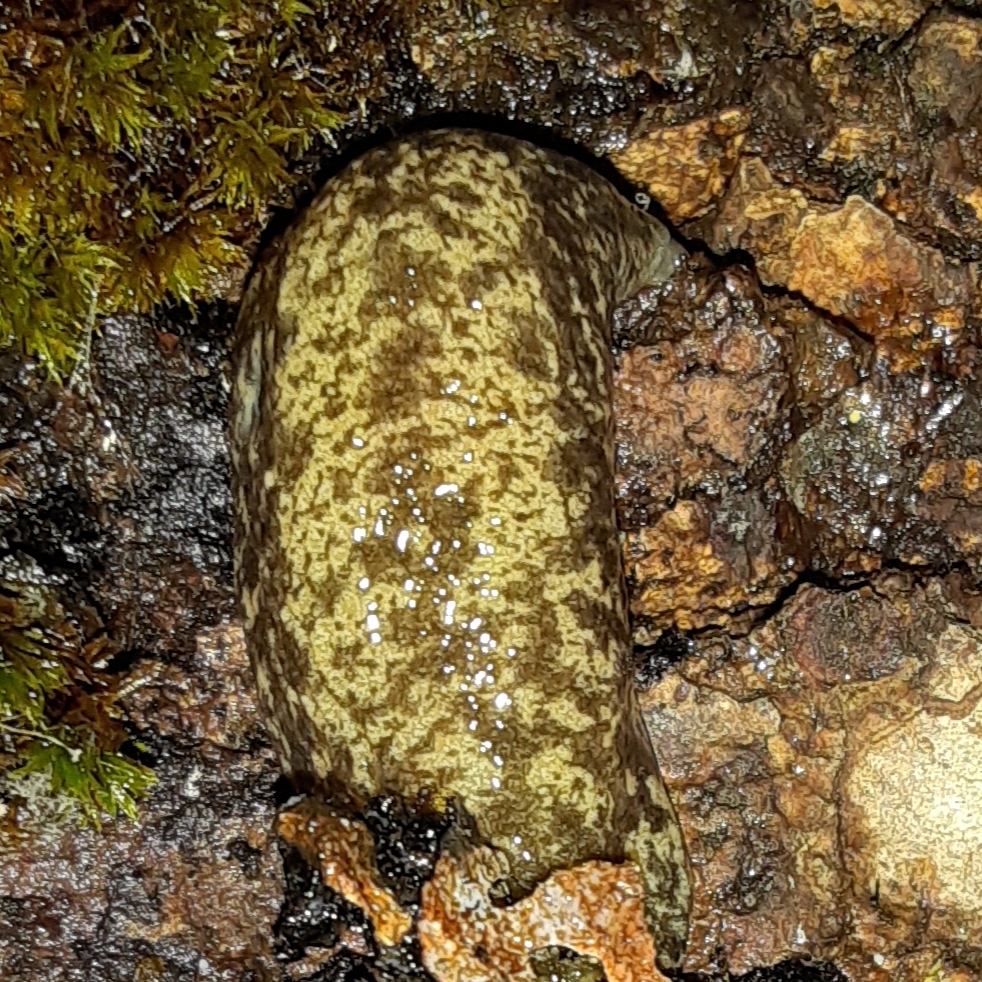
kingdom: Animalia
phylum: Mollusca
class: Gastropoda
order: Stylommatophora
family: Philomycidae
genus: Philomycus
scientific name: Philomycus flexuolaris
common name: Winding mantleslug
